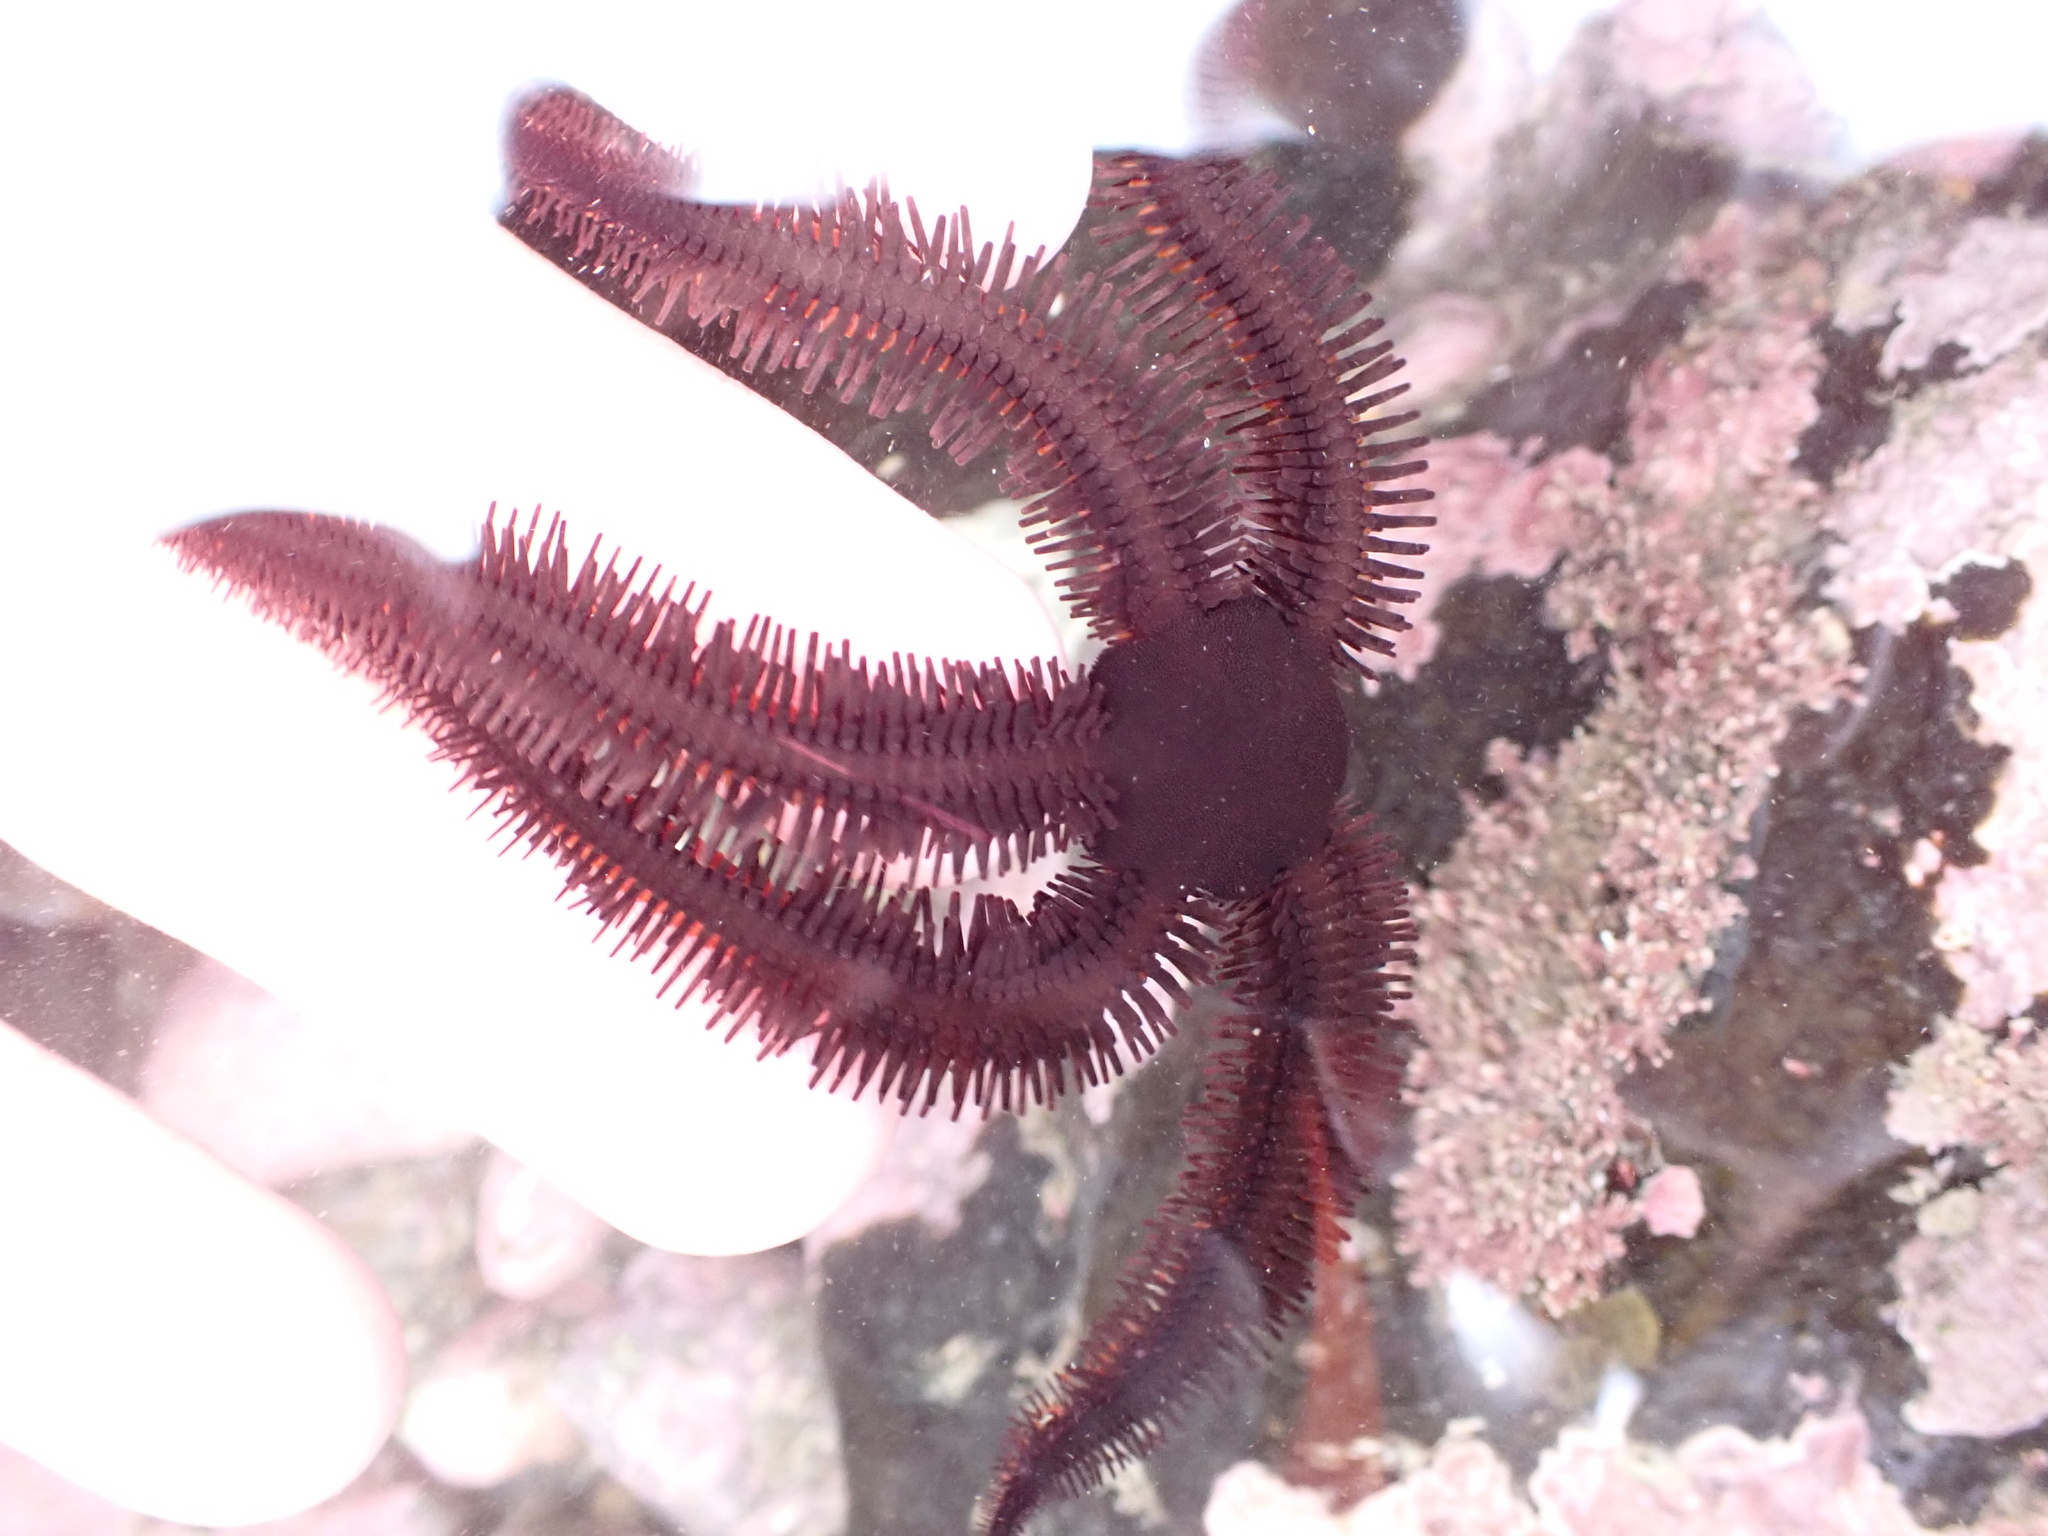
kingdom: Animalia
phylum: Echinodermata
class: Ophiuroidea
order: Ophiacanthida
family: Ophiopteridae
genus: Ophiopteris
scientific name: Ophiopteris antipodum
